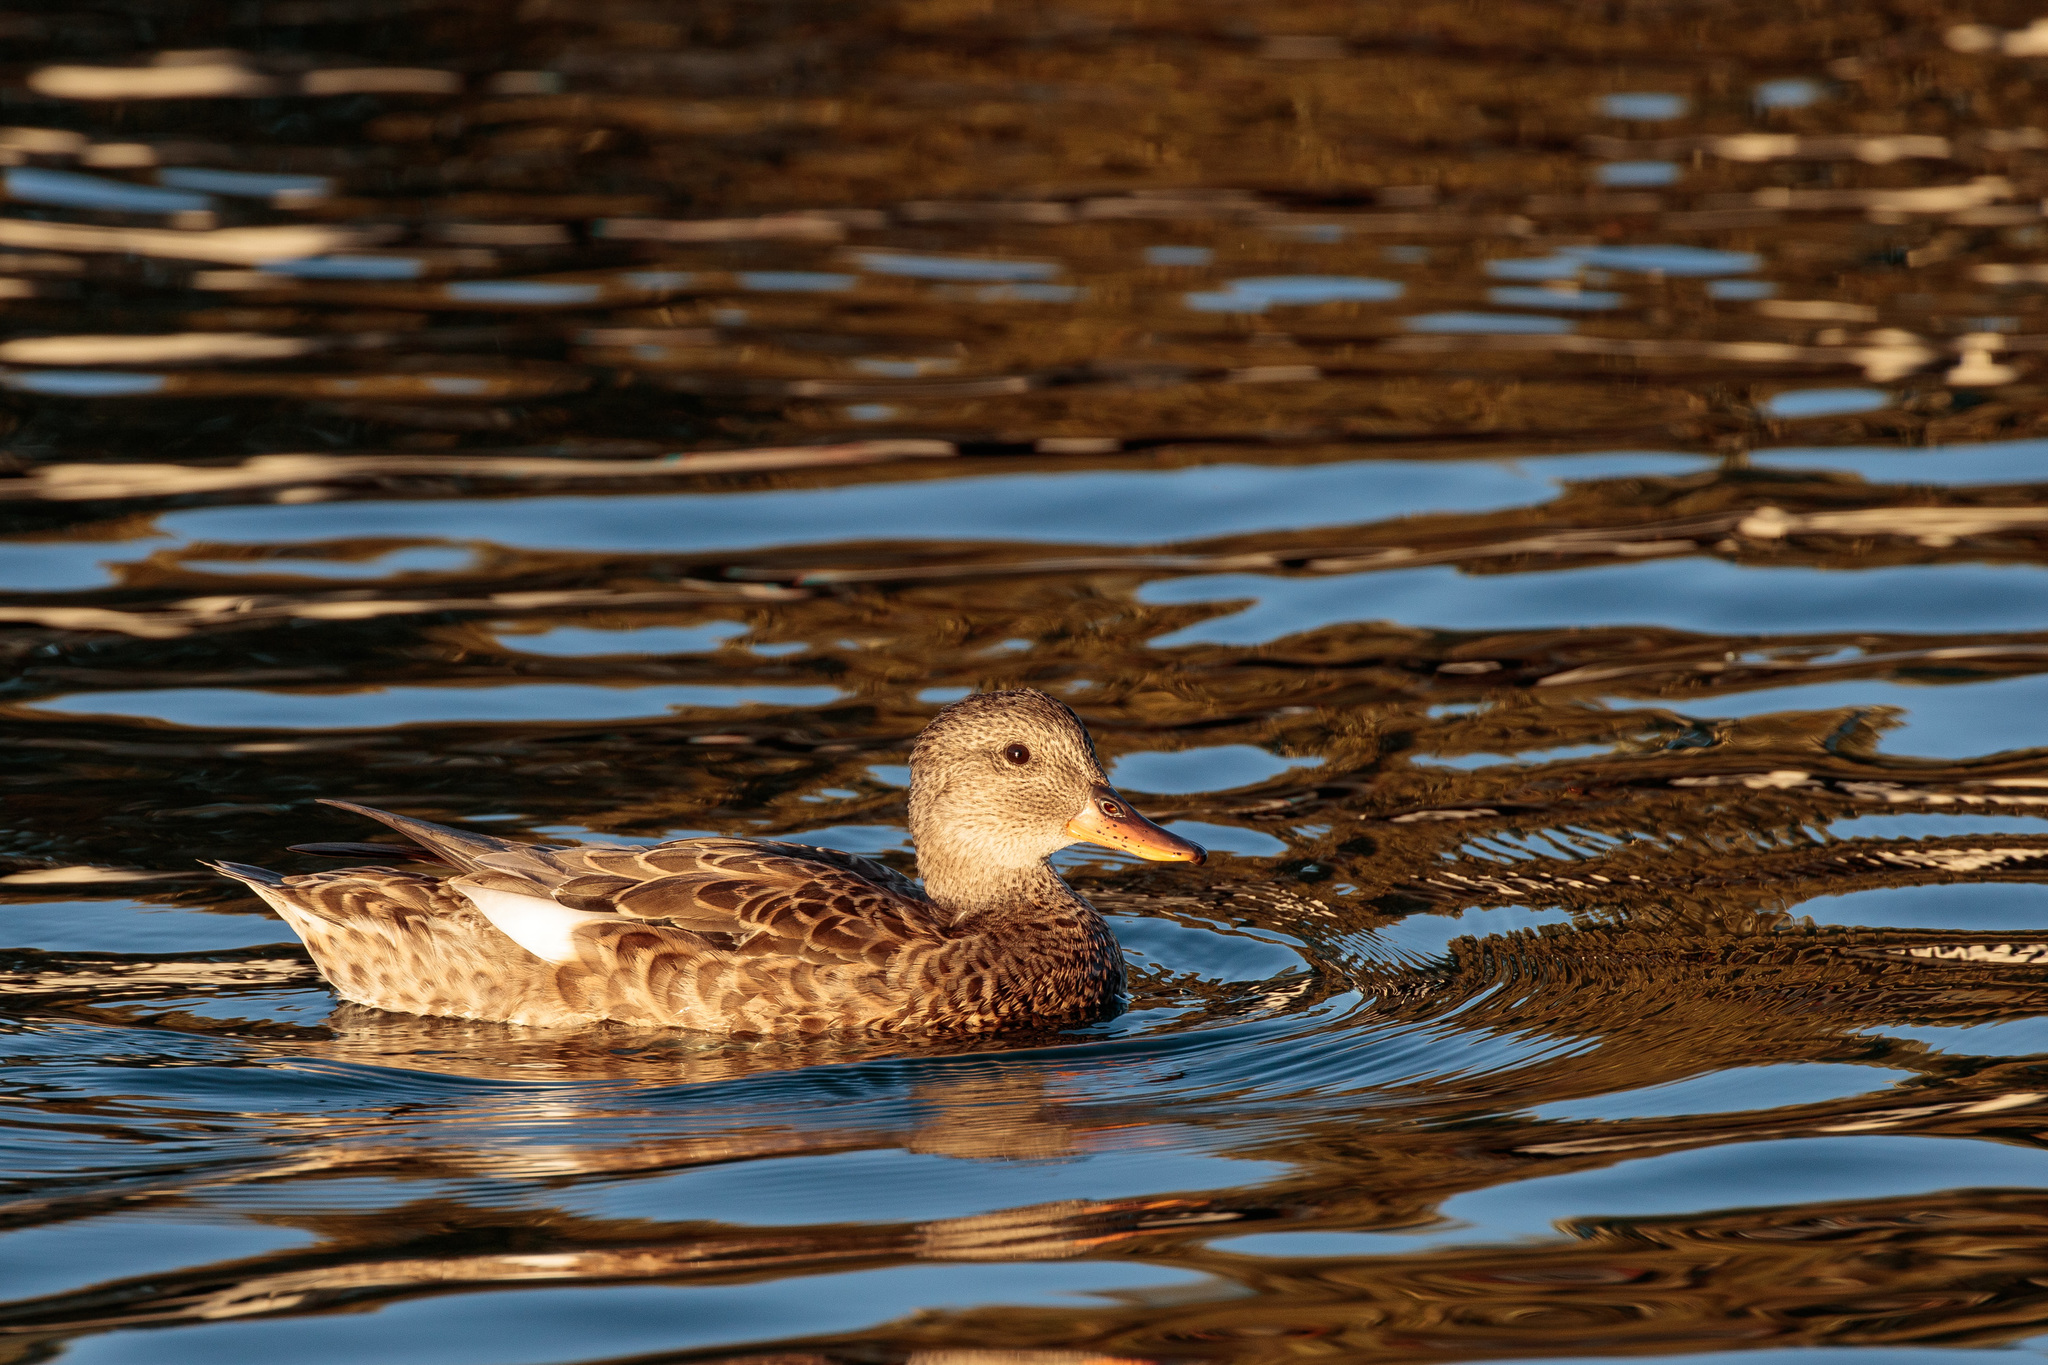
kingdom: Animalia
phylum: Chordata
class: Aves
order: Anseriformes
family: Anatidae
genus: Mareca
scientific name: Mareca strepera
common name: Gadwall
